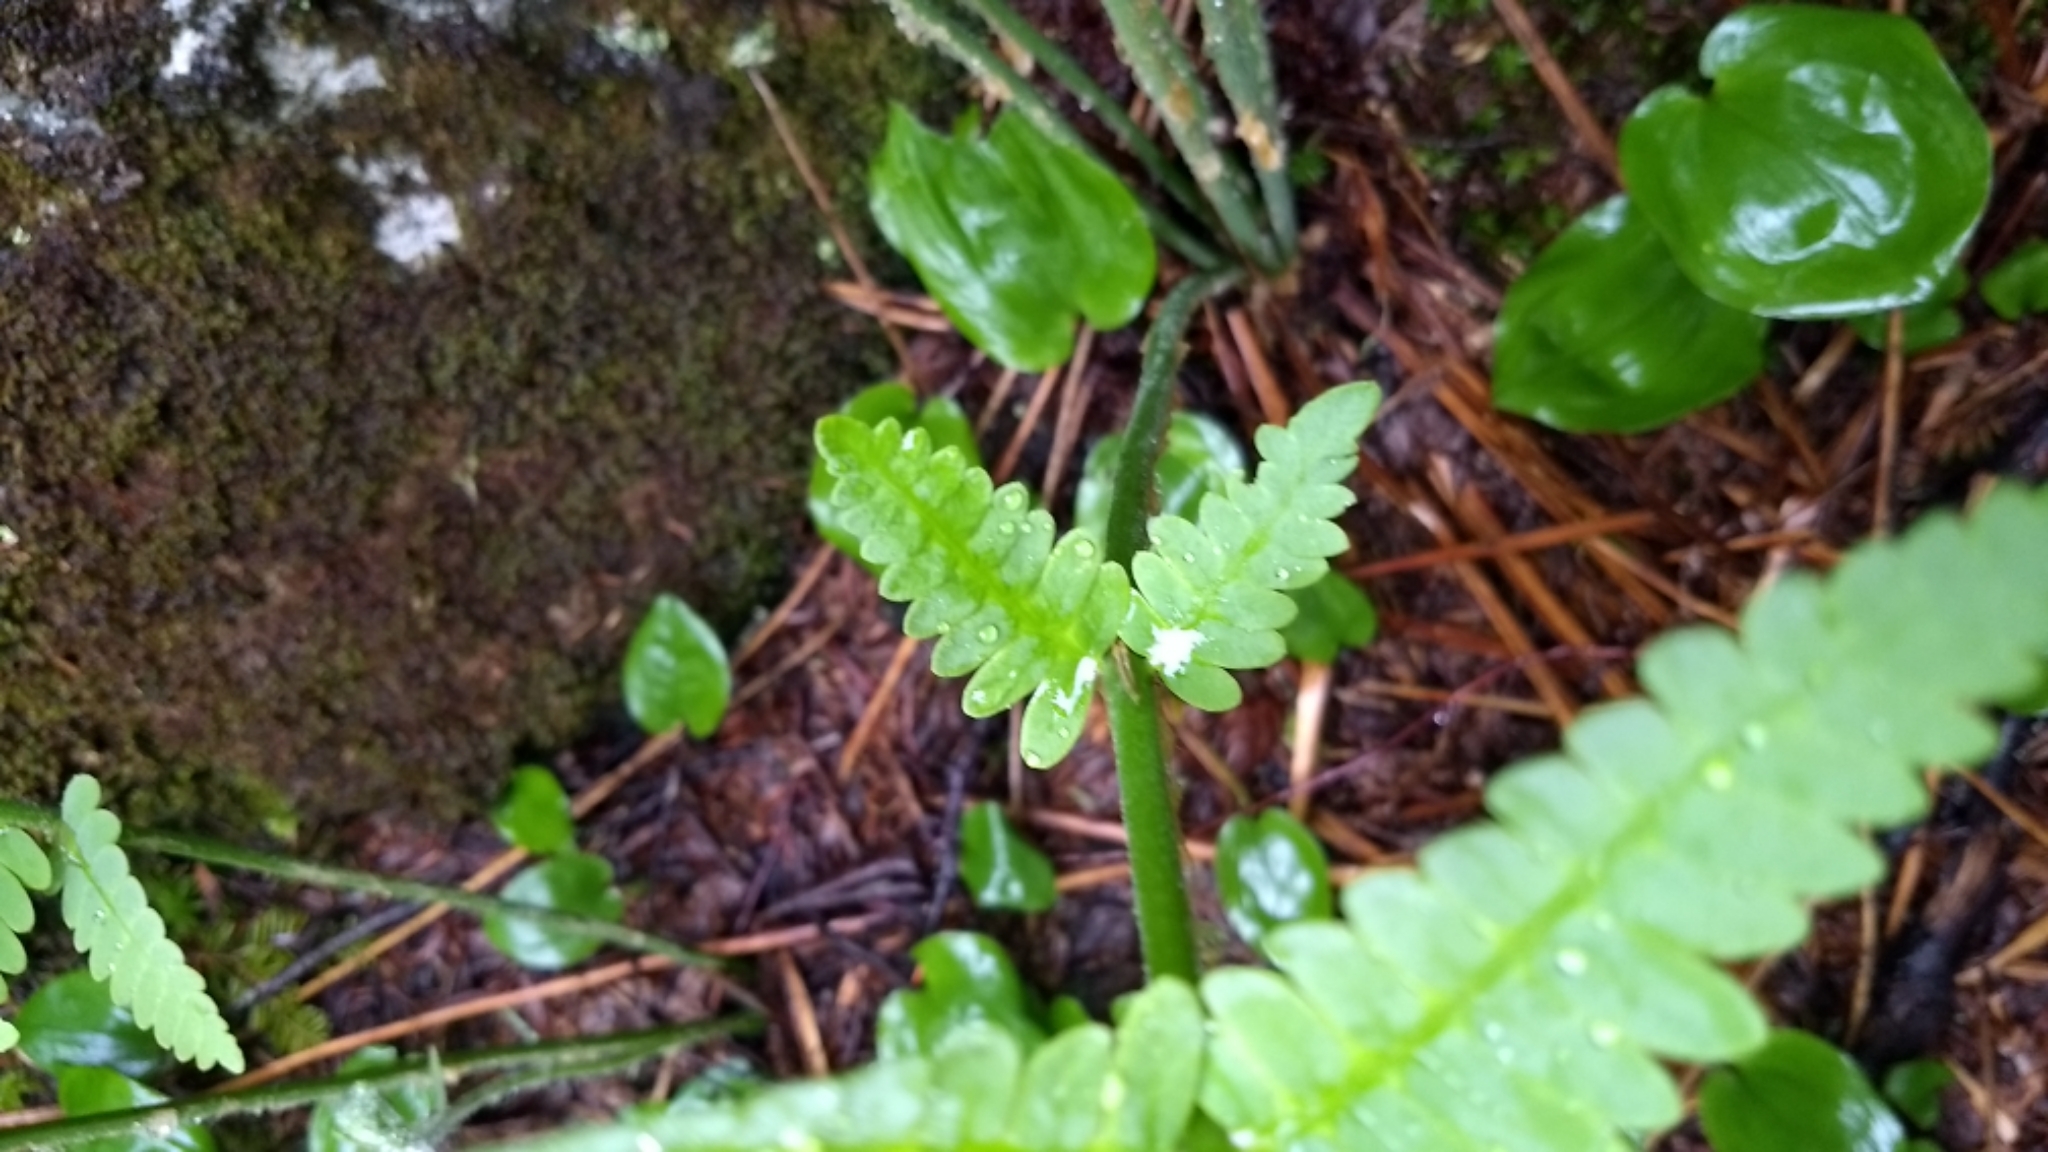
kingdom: Plantae
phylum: Tracheophyta
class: Polypodiopsida
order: Osmundales
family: Osmundaceae
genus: Osmundastrum
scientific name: Osmundastrum cinnamomeum
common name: Cinnamon fern
